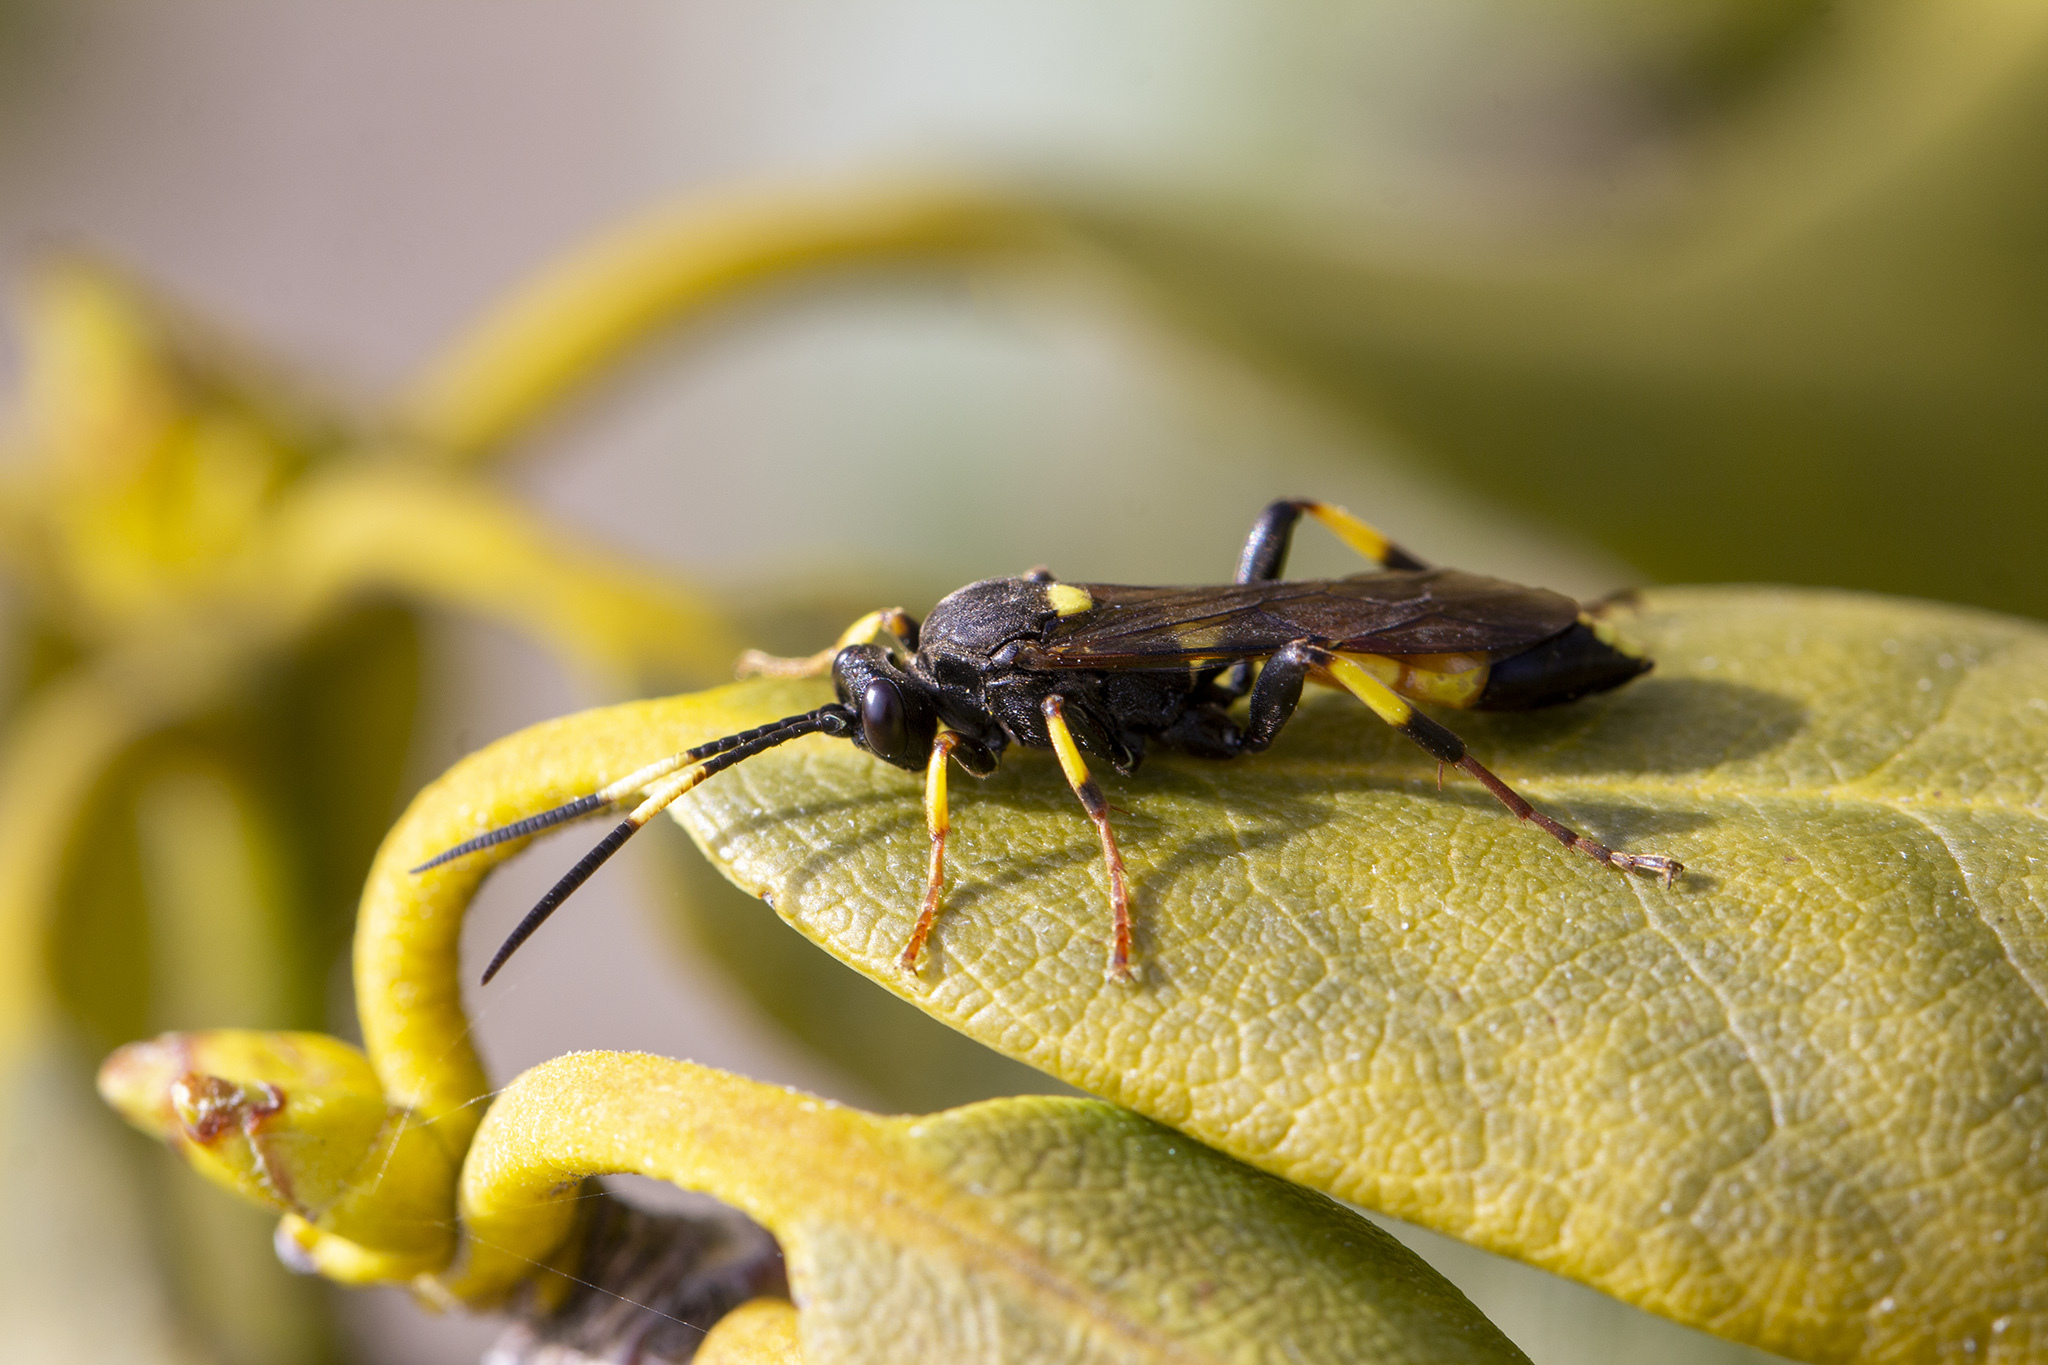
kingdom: Animalia
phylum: Arthropoda
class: Insecta
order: Hymenoptera
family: Ichneumonidae
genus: Ichneumon
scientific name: Ichneumon stramentor
